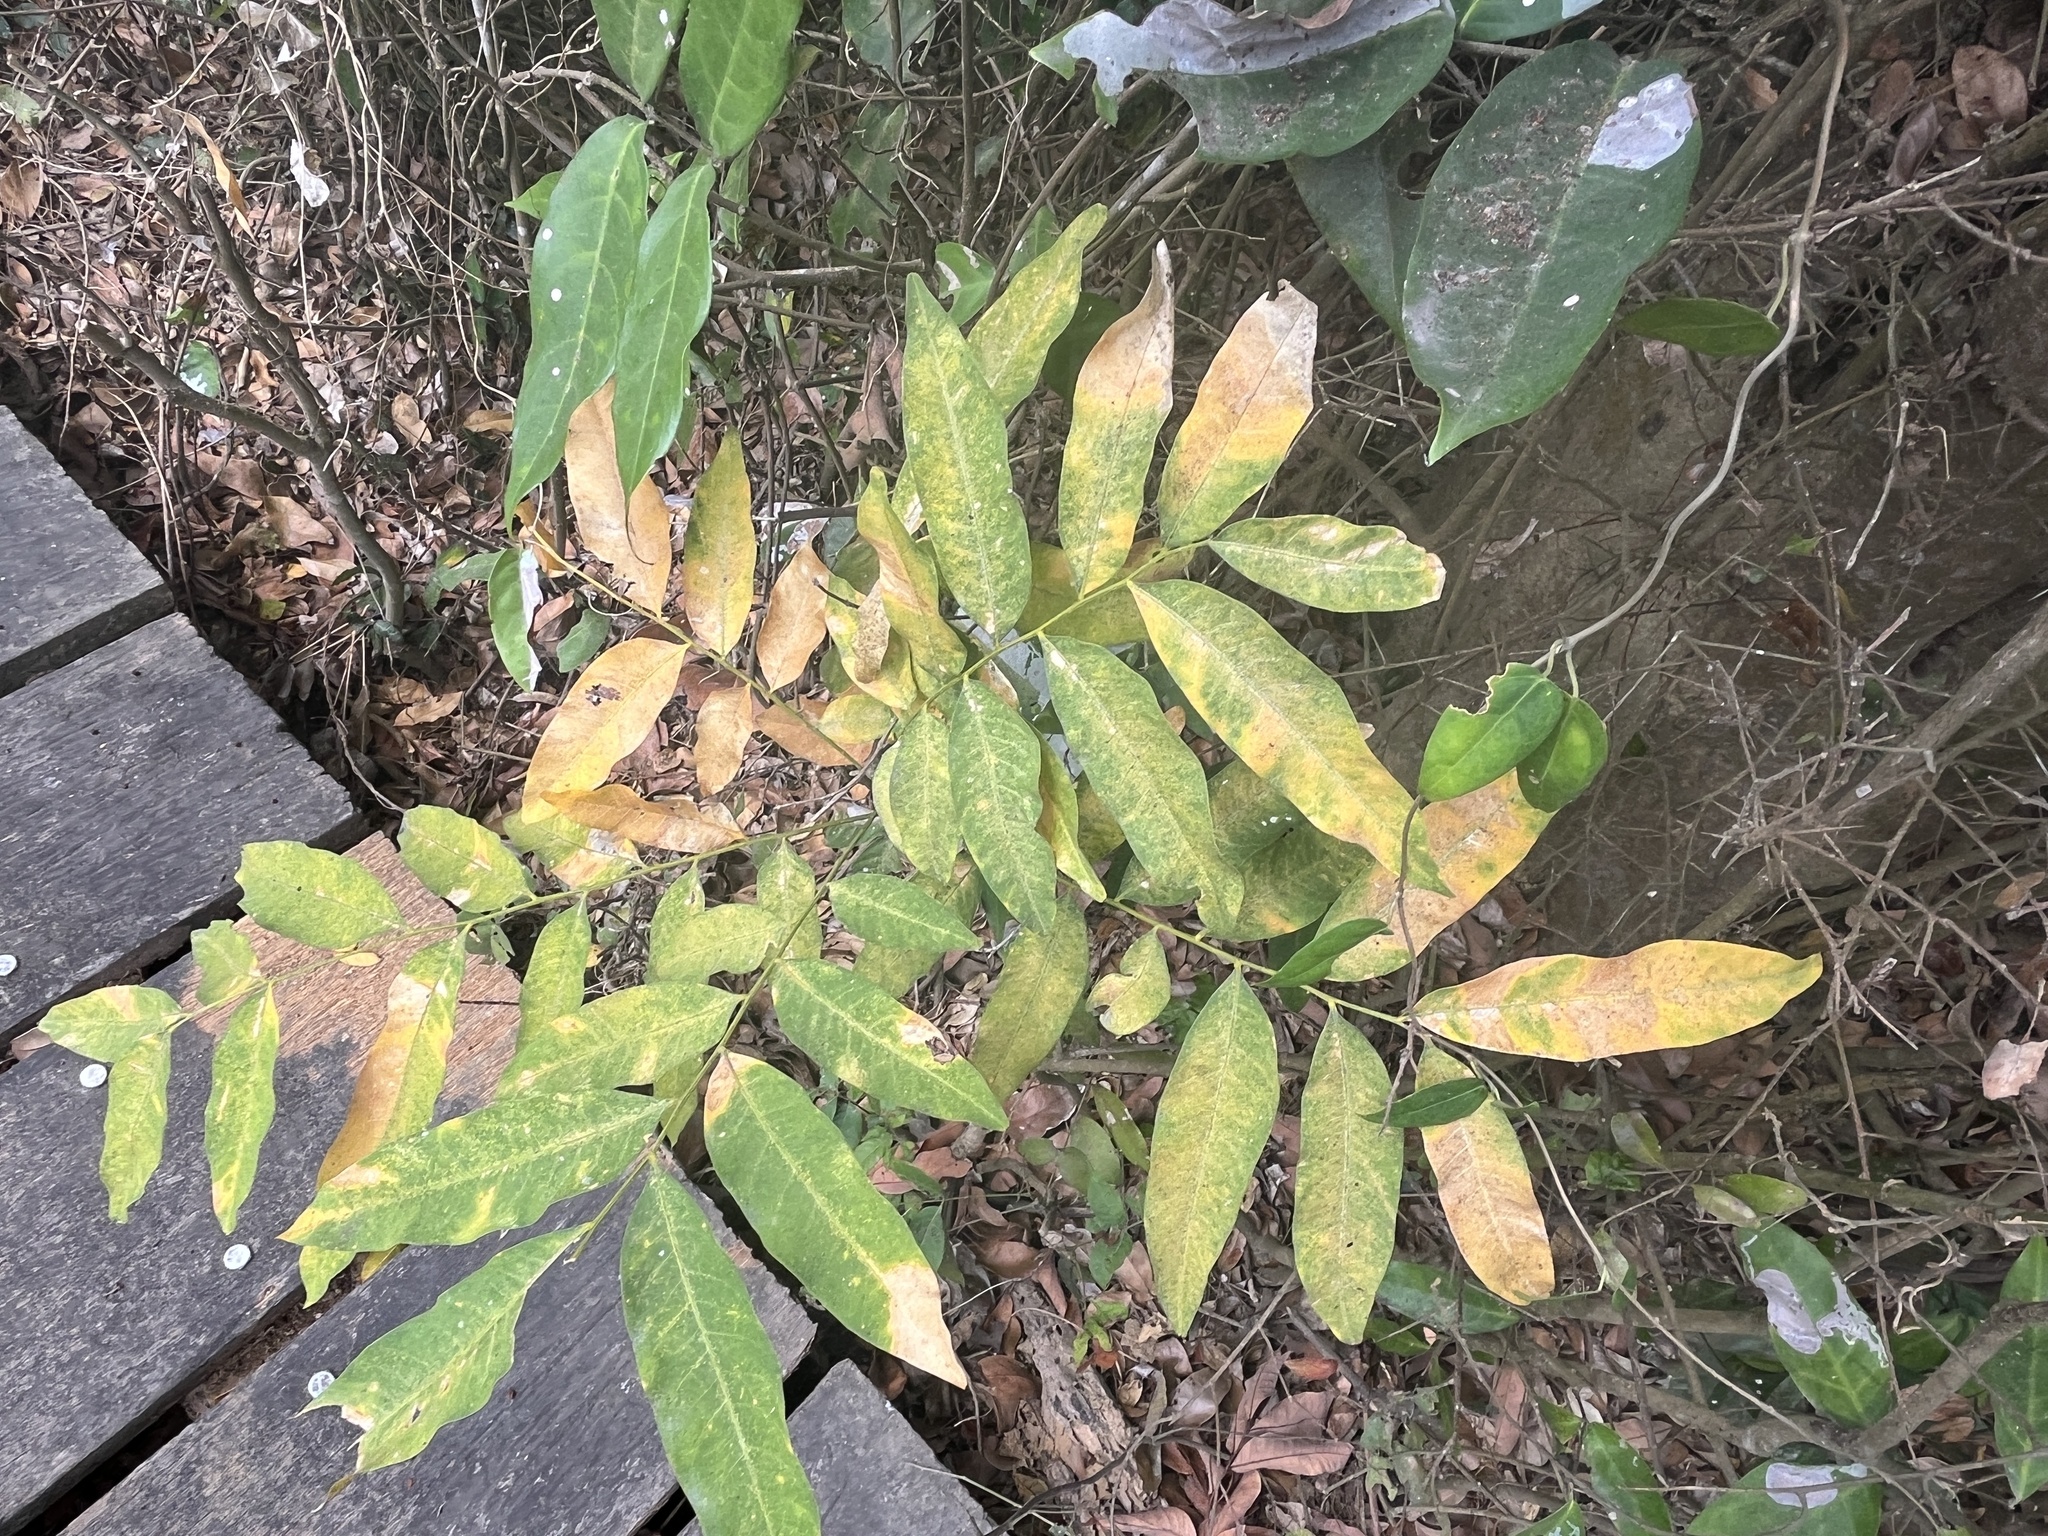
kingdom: Plantae
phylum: Tracheophyta
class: Magnoliopsida
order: Sapindales
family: Sapindaceae
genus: Sapindus
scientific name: Sapindus mukorossi
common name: Chinese soapberry
